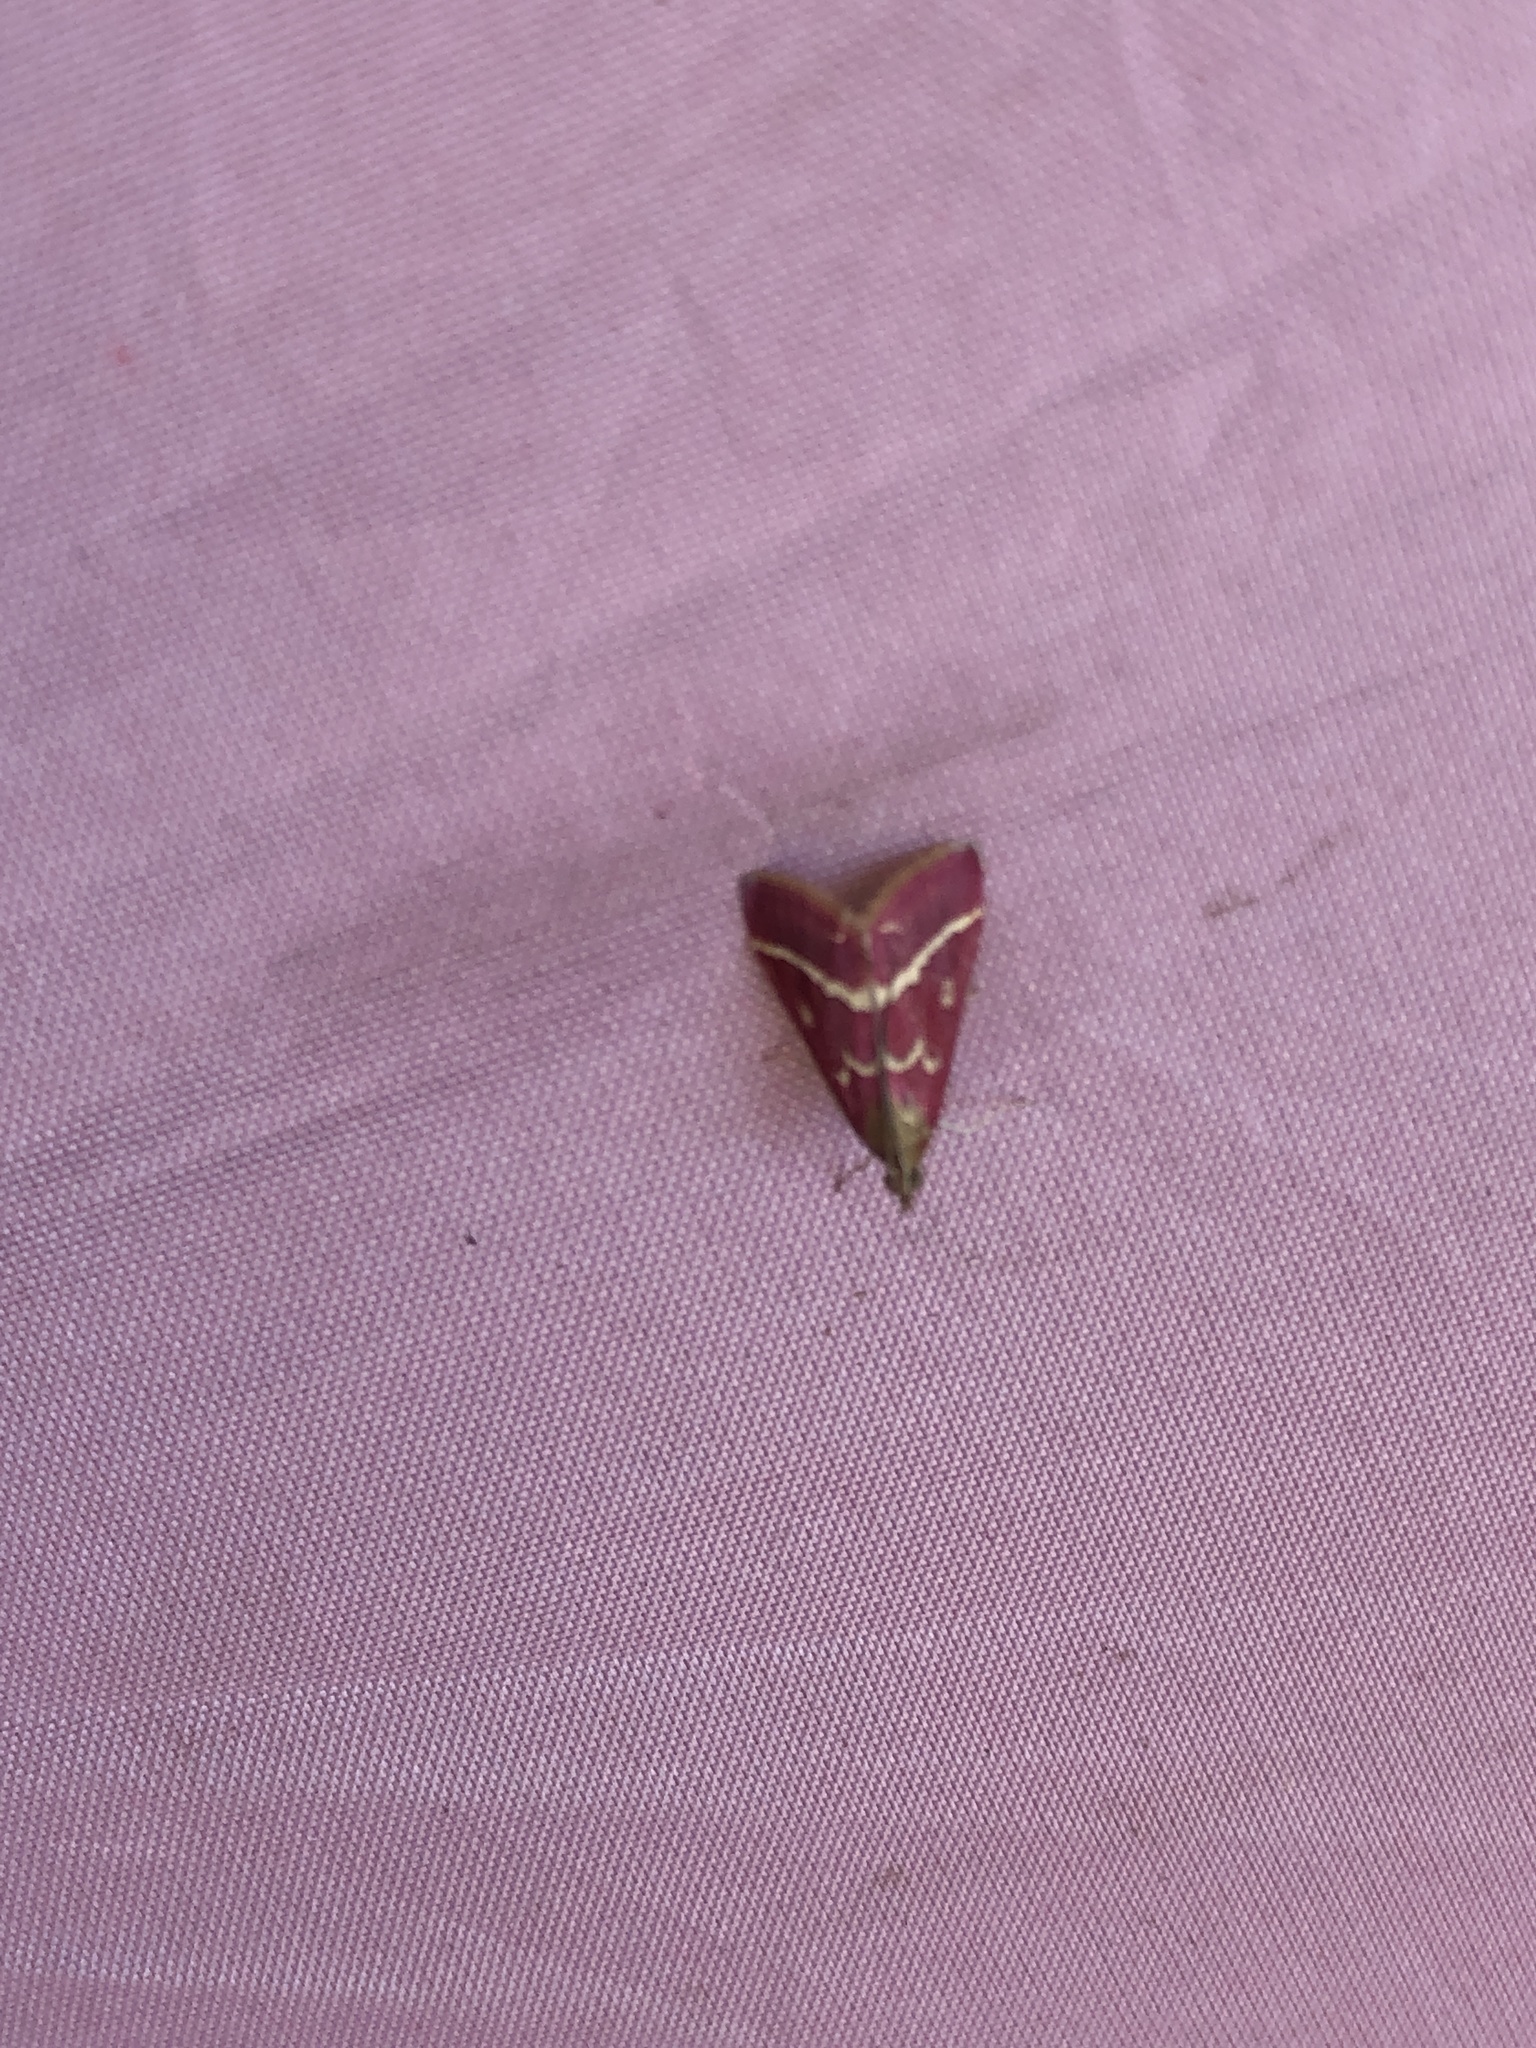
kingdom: Animalia
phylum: Arthropoda
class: Insecta
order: Lepidoptera
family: Crambidae
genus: Pyrausta
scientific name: Pyrausta volupialis
